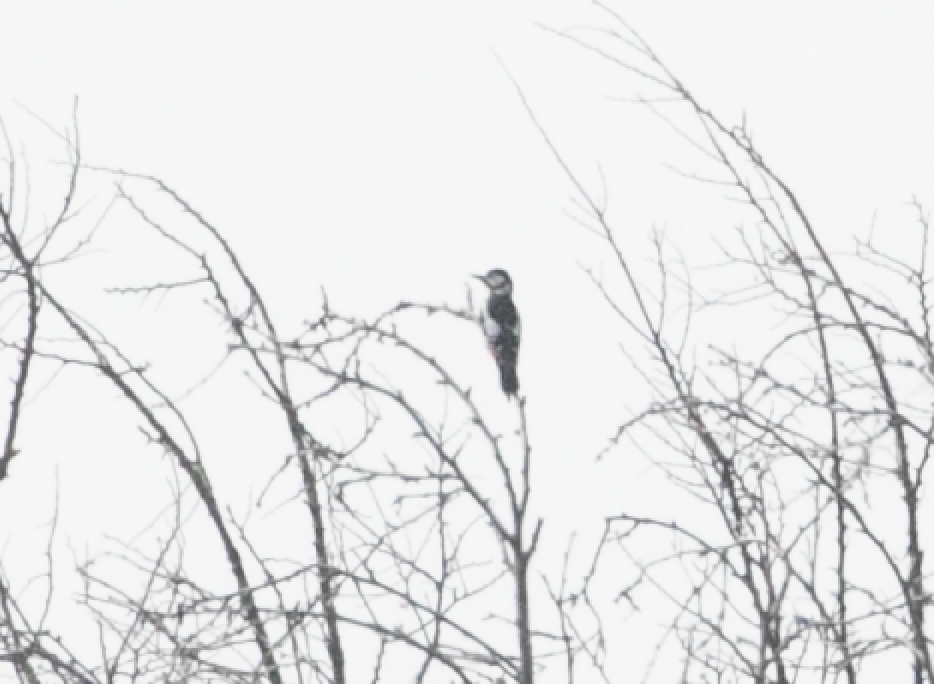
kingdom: Animalia
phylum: Chordata
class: Aves
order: Piciformes
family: Picidae
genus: Dendrocopos
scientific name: Dendrocopos major
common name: Great spotted woodpecker
